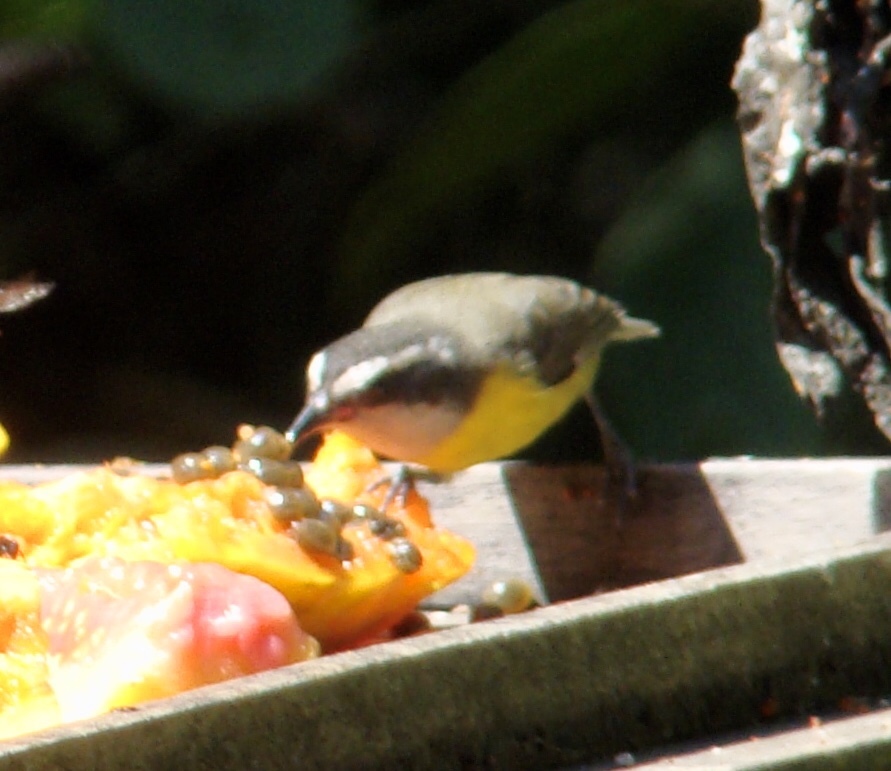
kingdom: Animalia
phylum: Chordata
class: Aves
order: Passeriformes
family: Thraupidae
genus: Coereba
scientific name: Coereba flaveola
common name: Bananaquit
